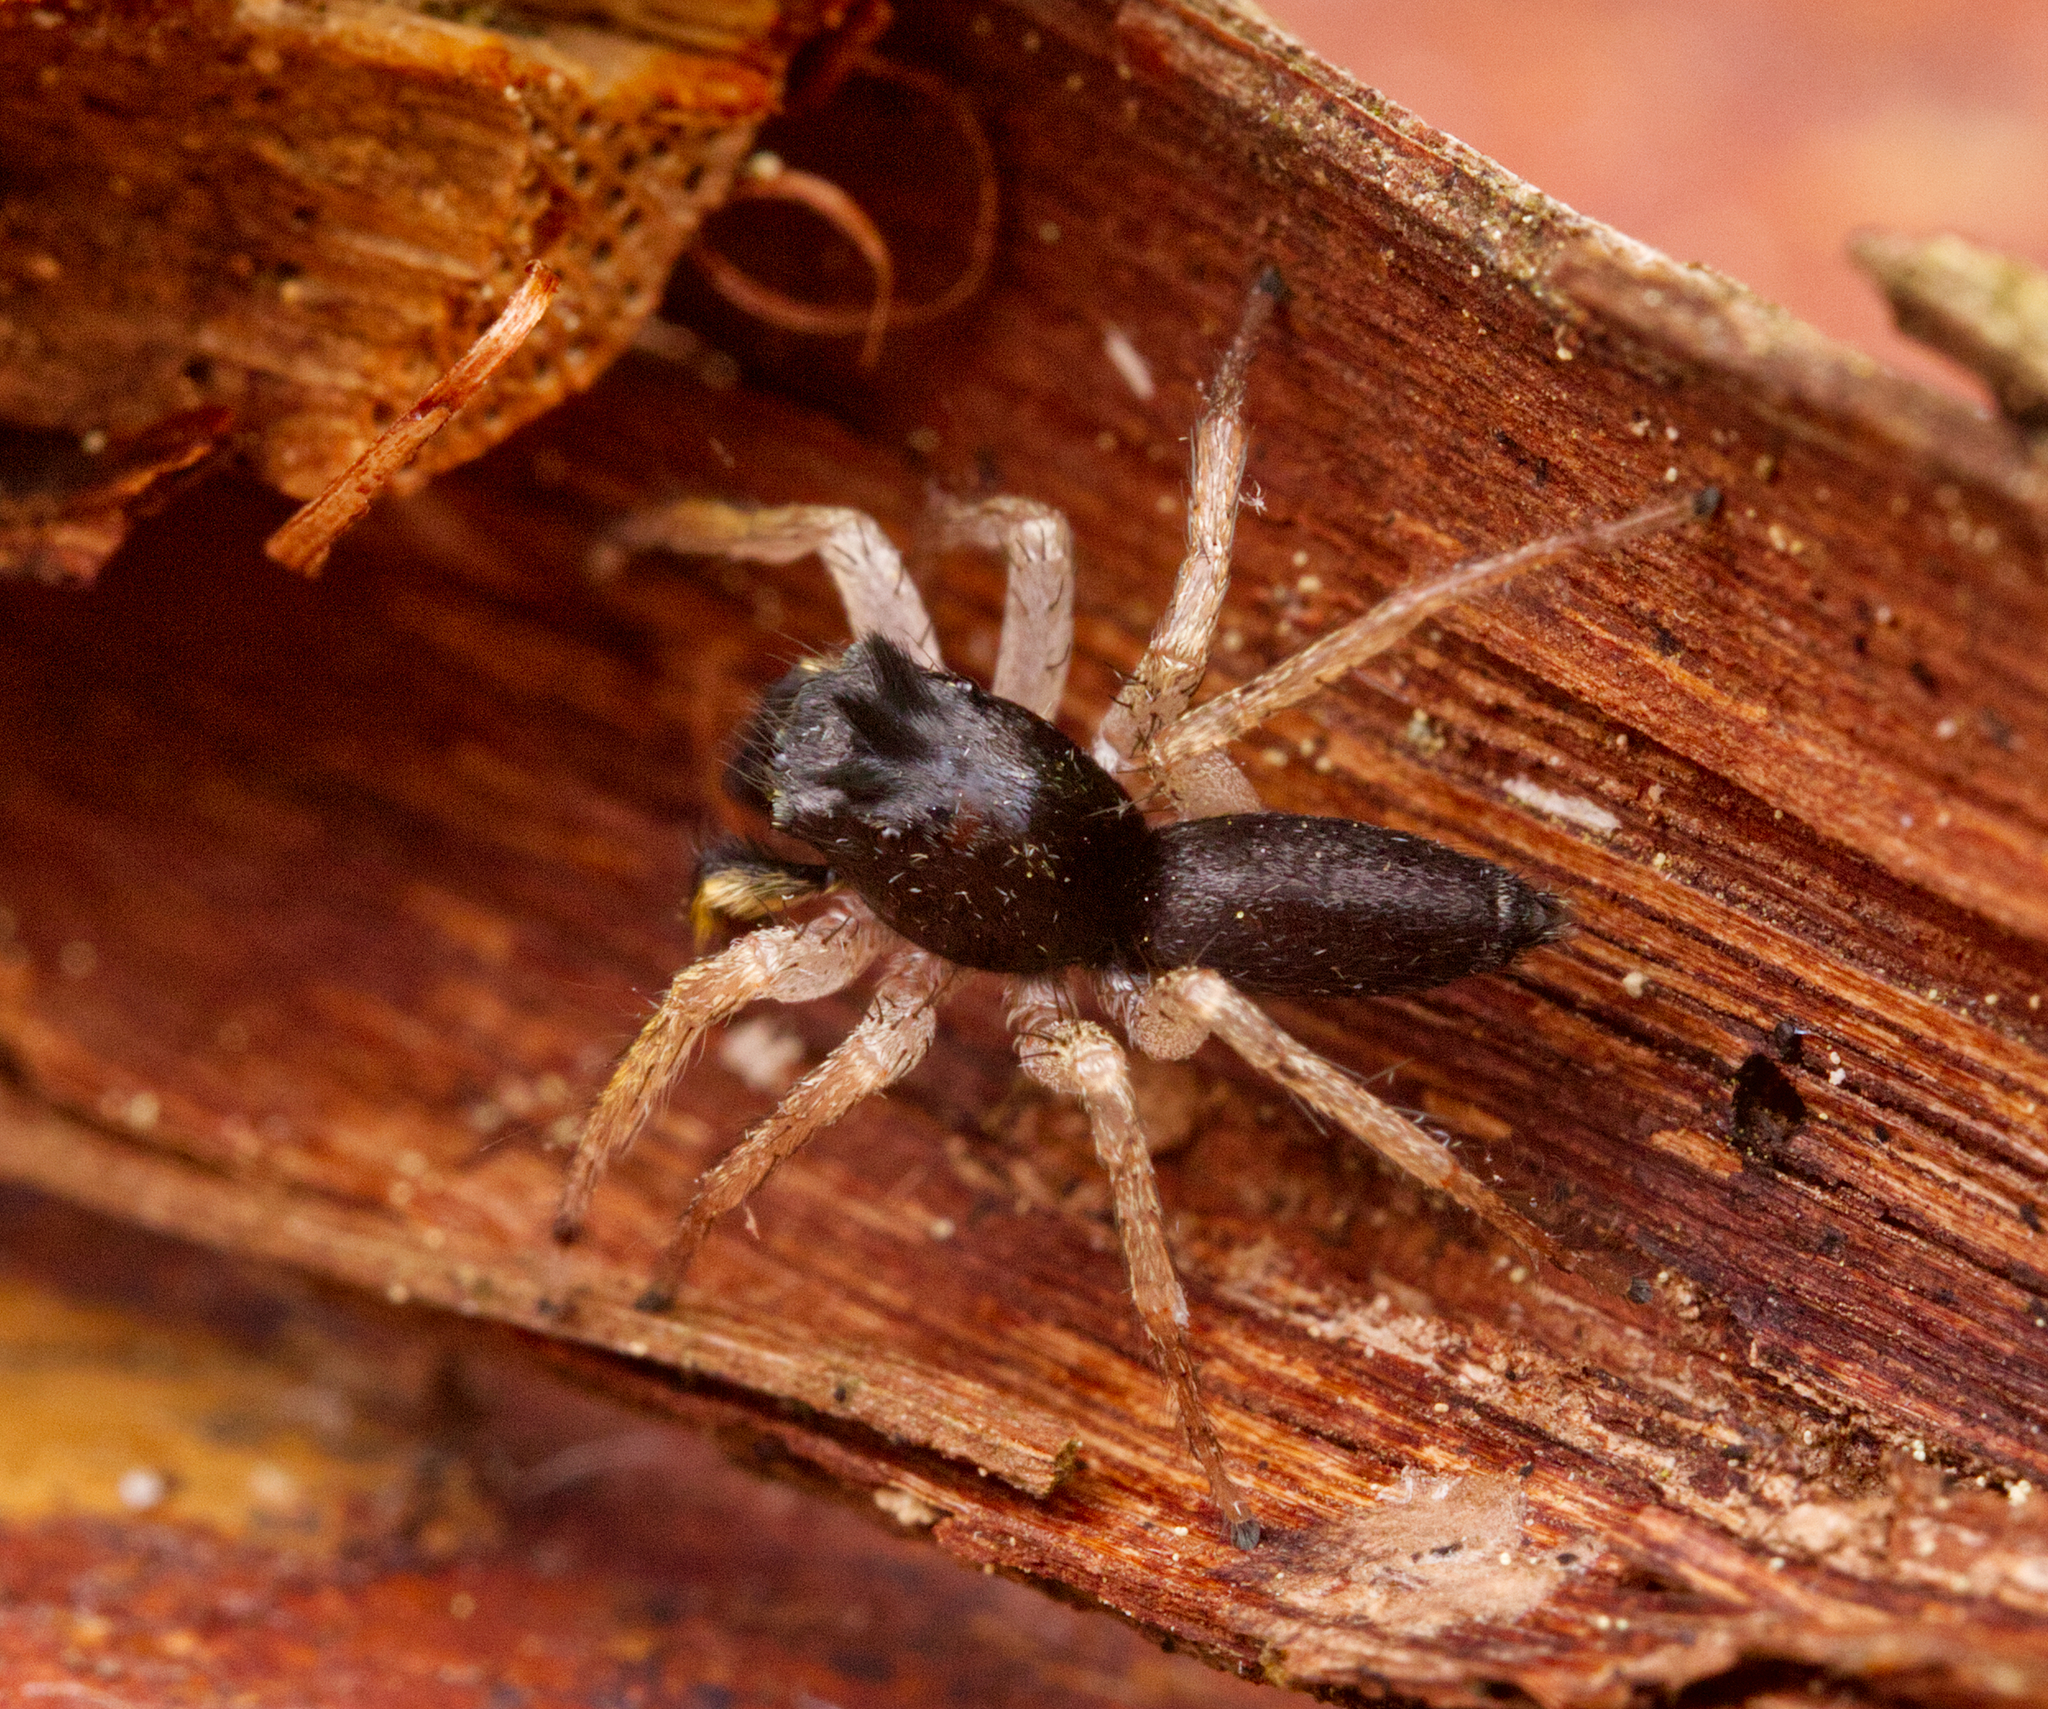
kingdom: Animalia
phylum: Arthropoda
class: Arachnida
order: Araneae
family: Salticidae
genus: Maevia
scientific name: Maevia inclemens
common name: Dimorphic jumper
